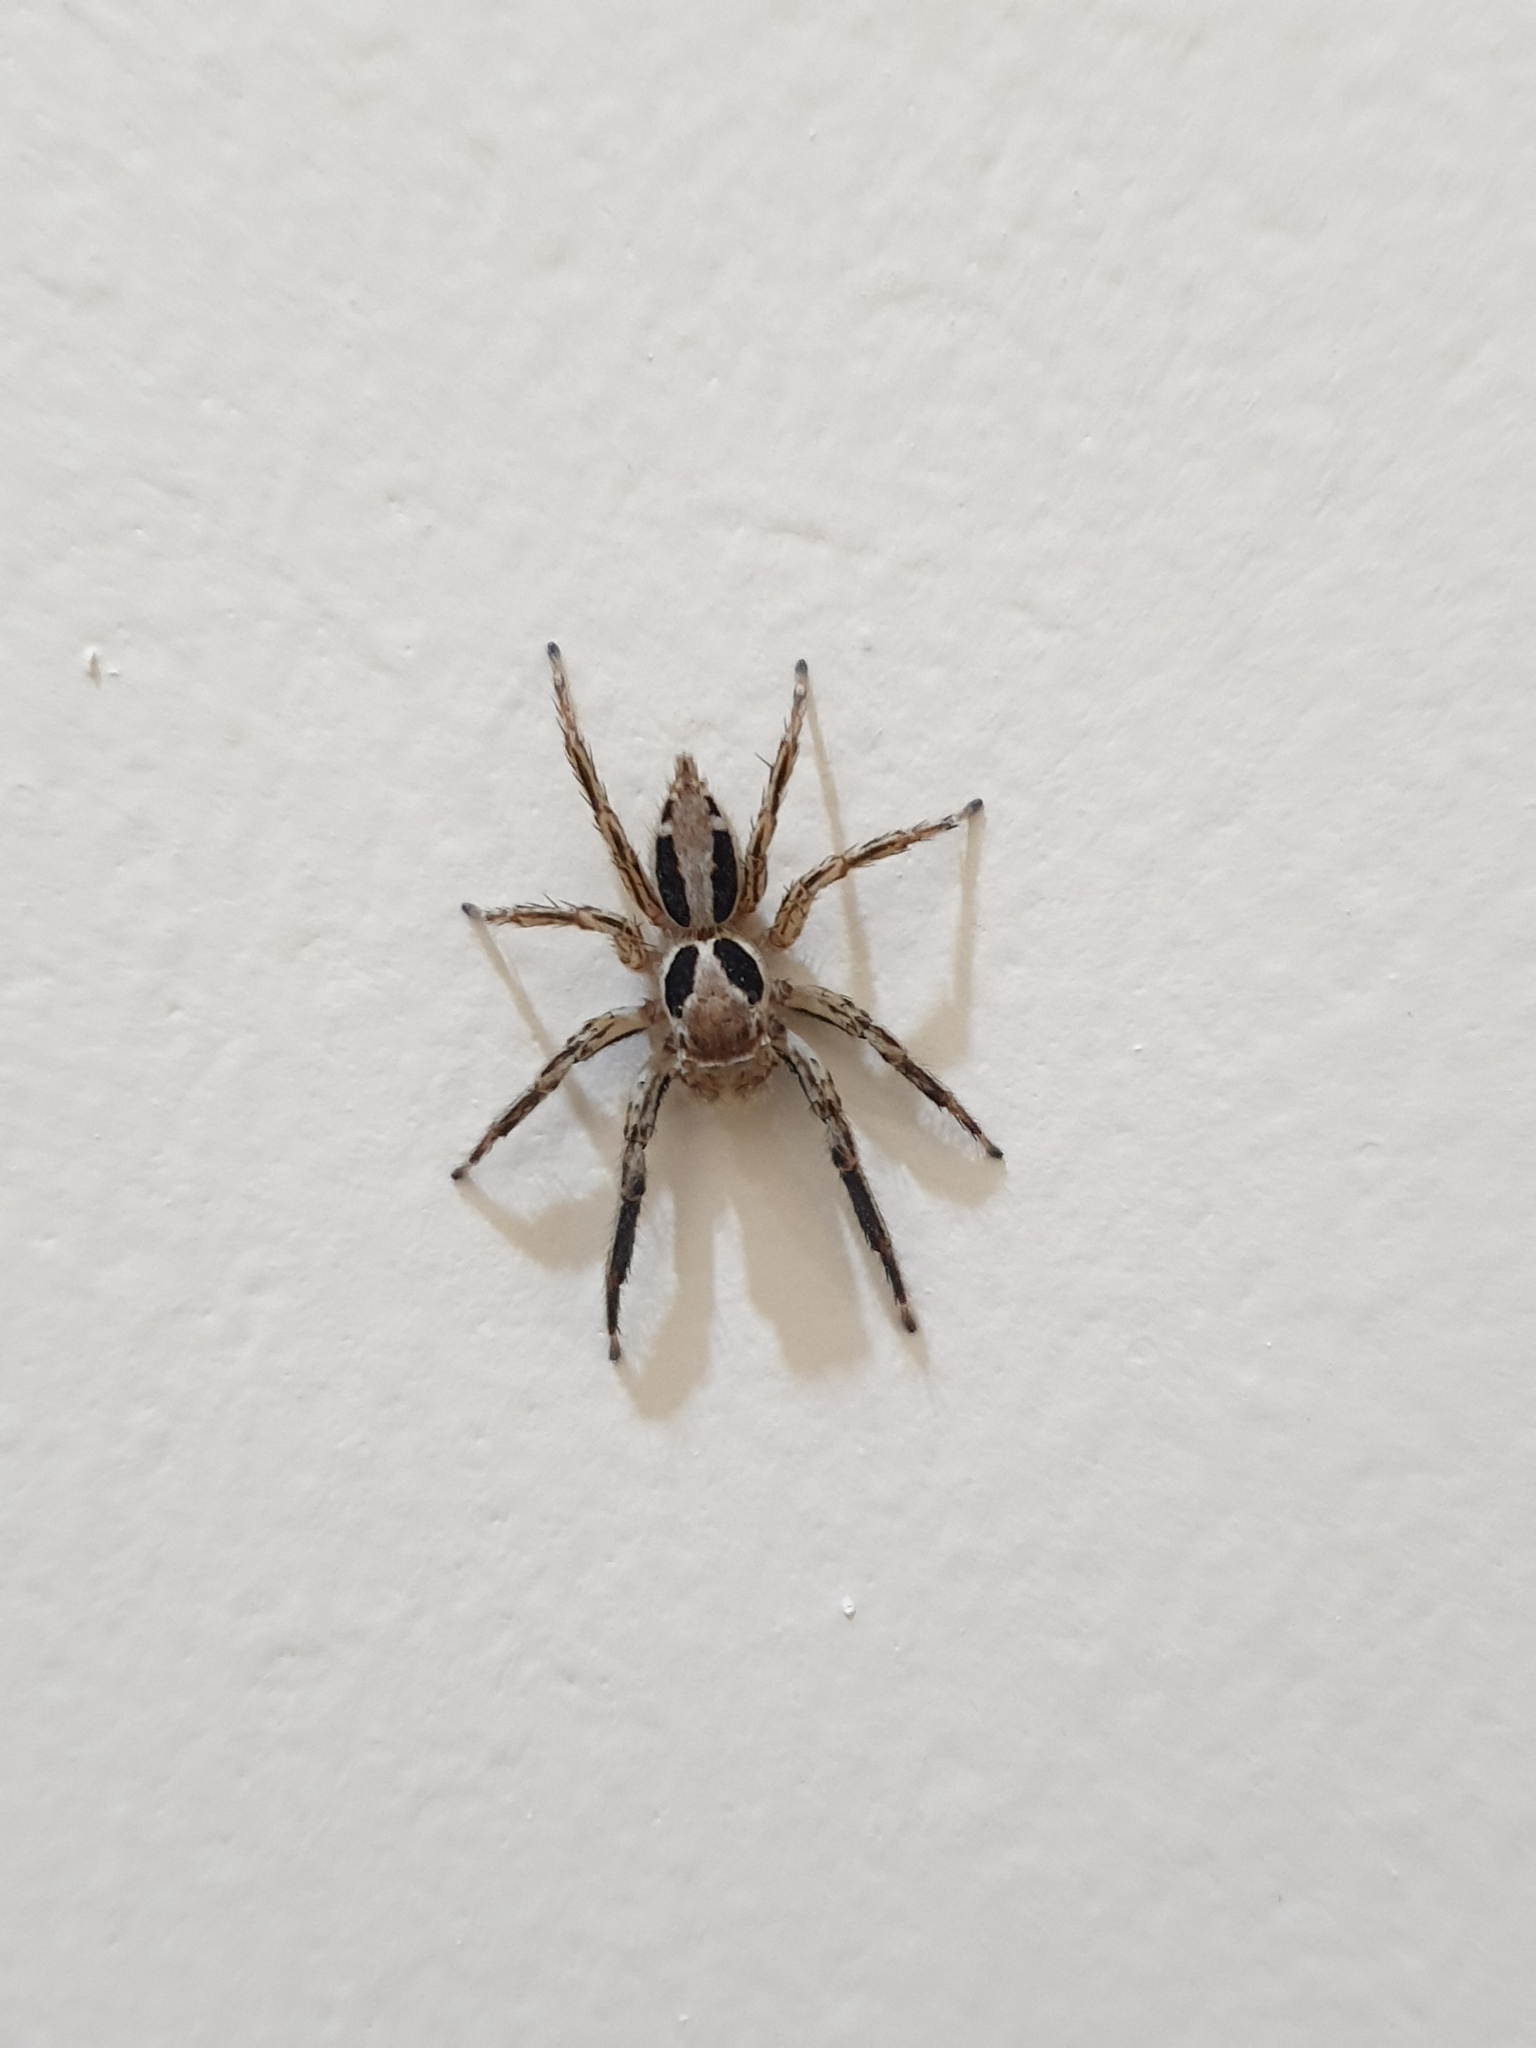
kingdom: Animalia
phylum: Arthropoda
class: Arachnida
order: Araneae
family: Salticidae
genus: Plexippus
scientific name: Plexippus petersi
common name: Jumping spider
